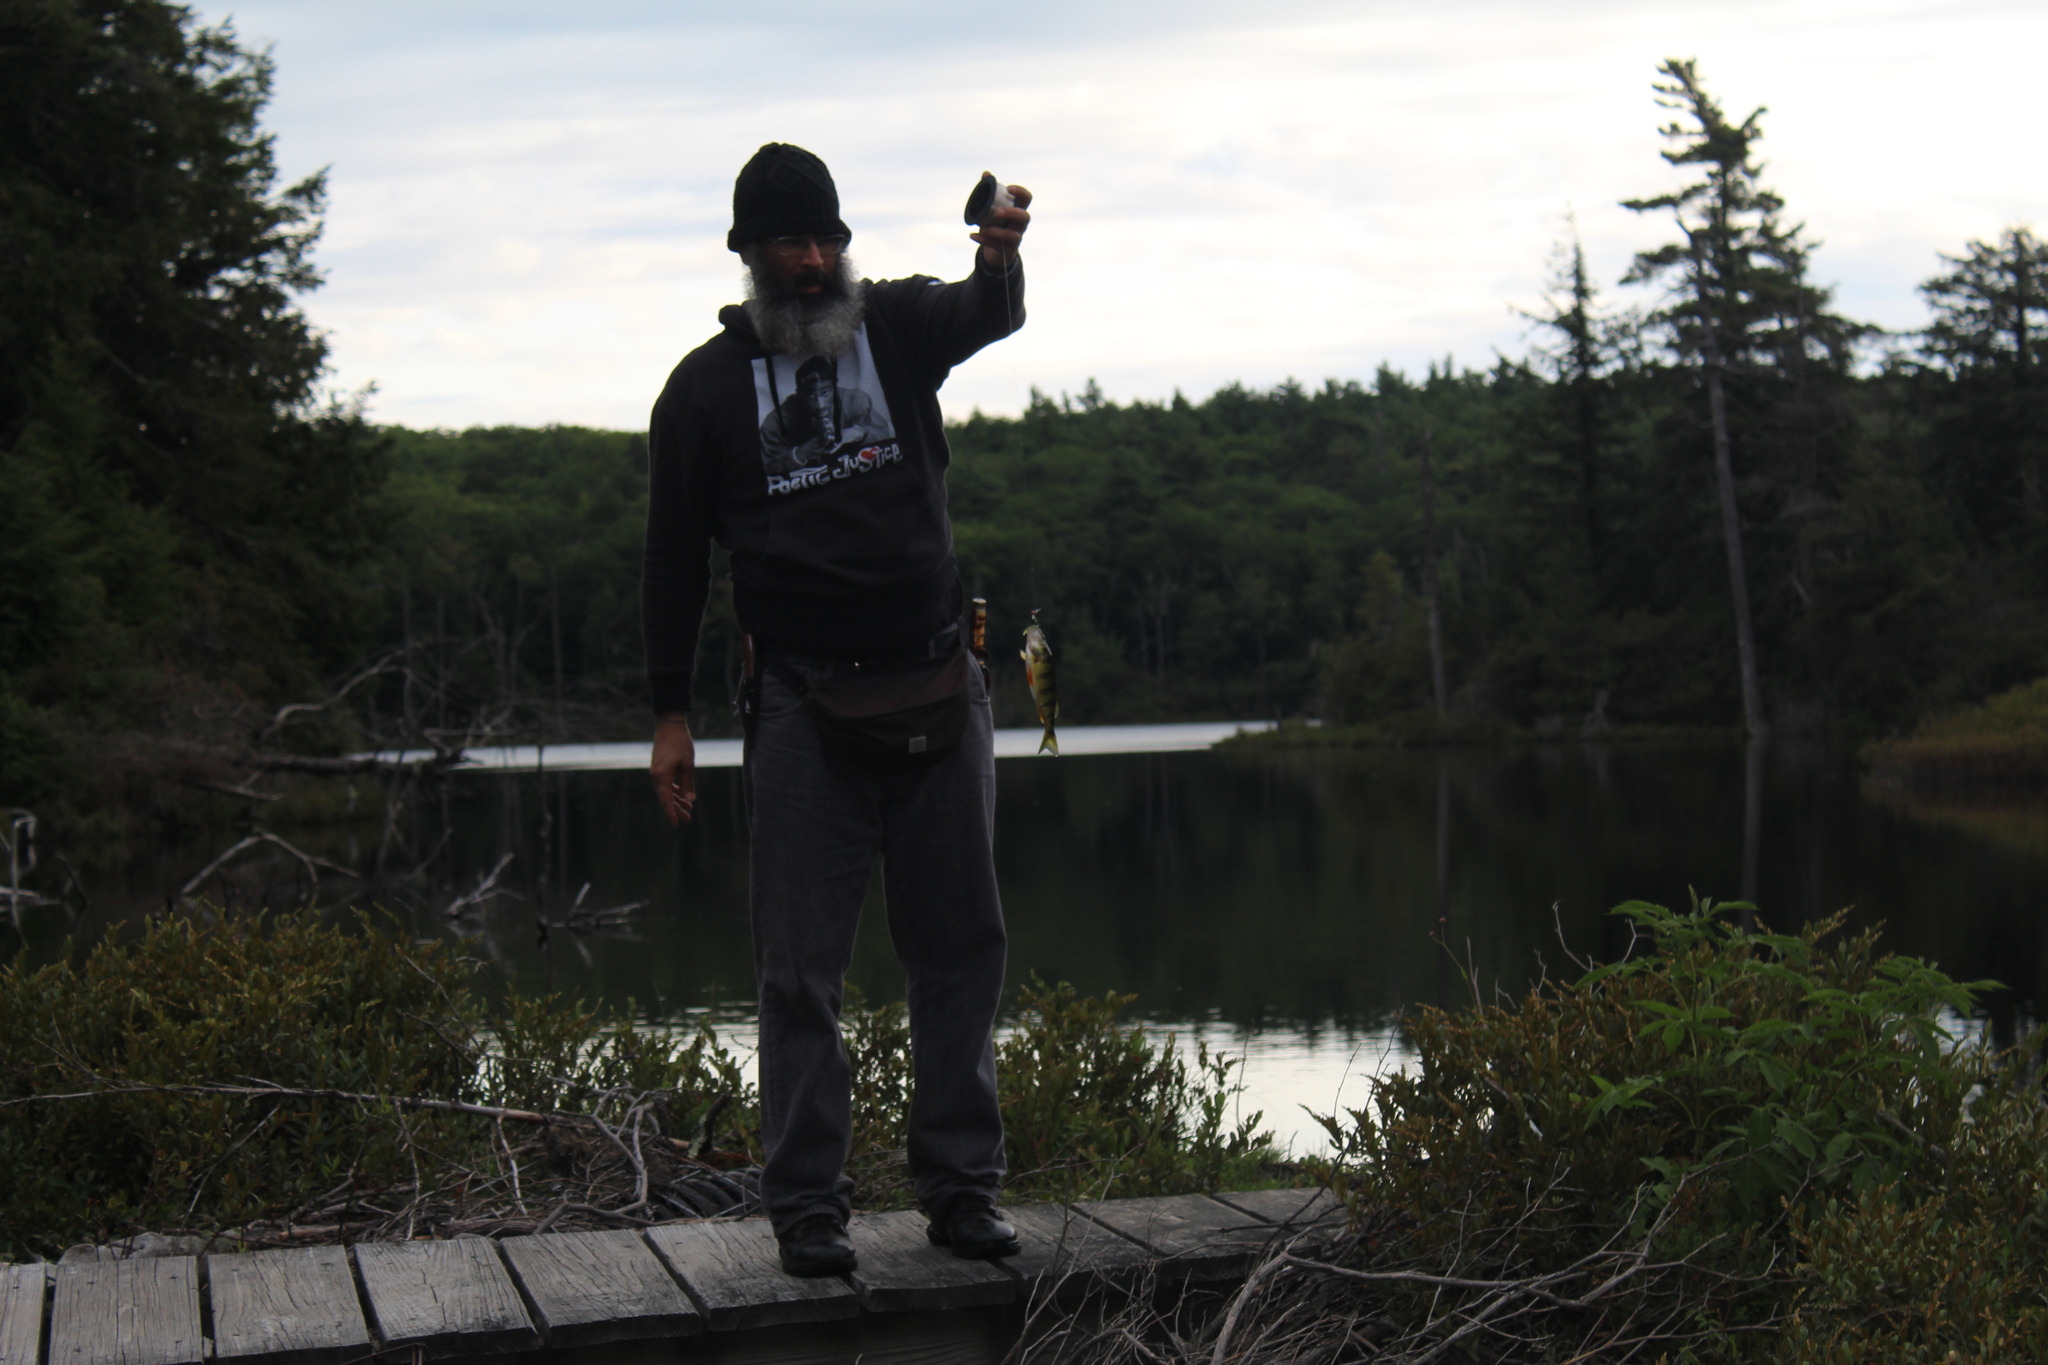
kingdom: Animalia
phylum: Chordata
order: Perciformes
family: Percidae
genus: Perca
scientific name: Perca flavescens
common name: Yellow perch
